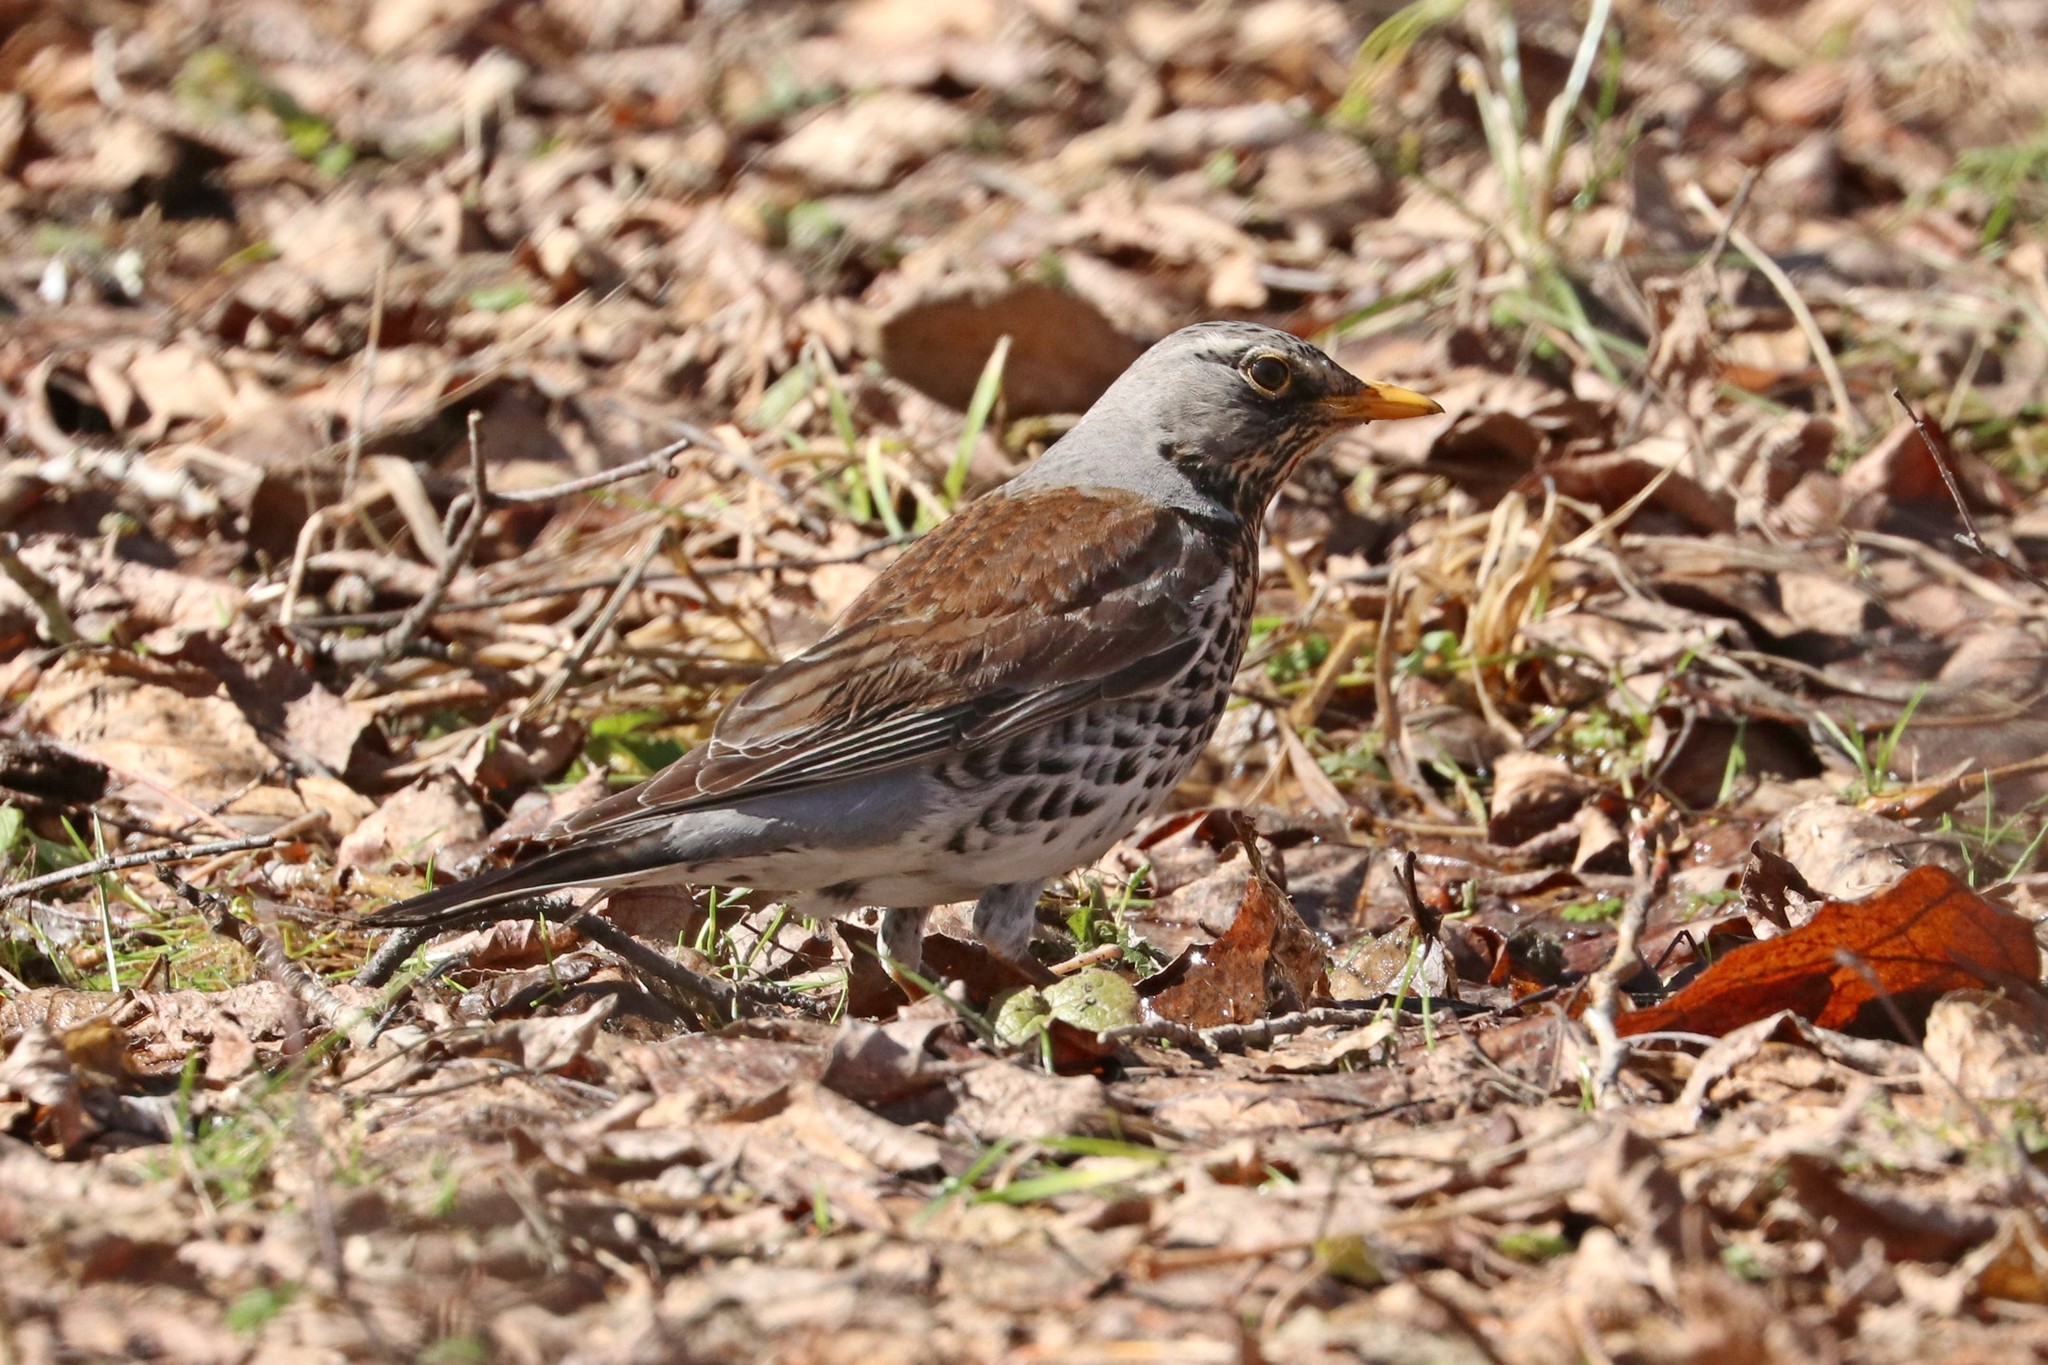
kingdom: Animalia
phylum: Chordata
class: Aves
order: Passeriformes
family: Turdidae
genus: Turdus
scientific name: Turdus pilaris
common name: Fieldfare
